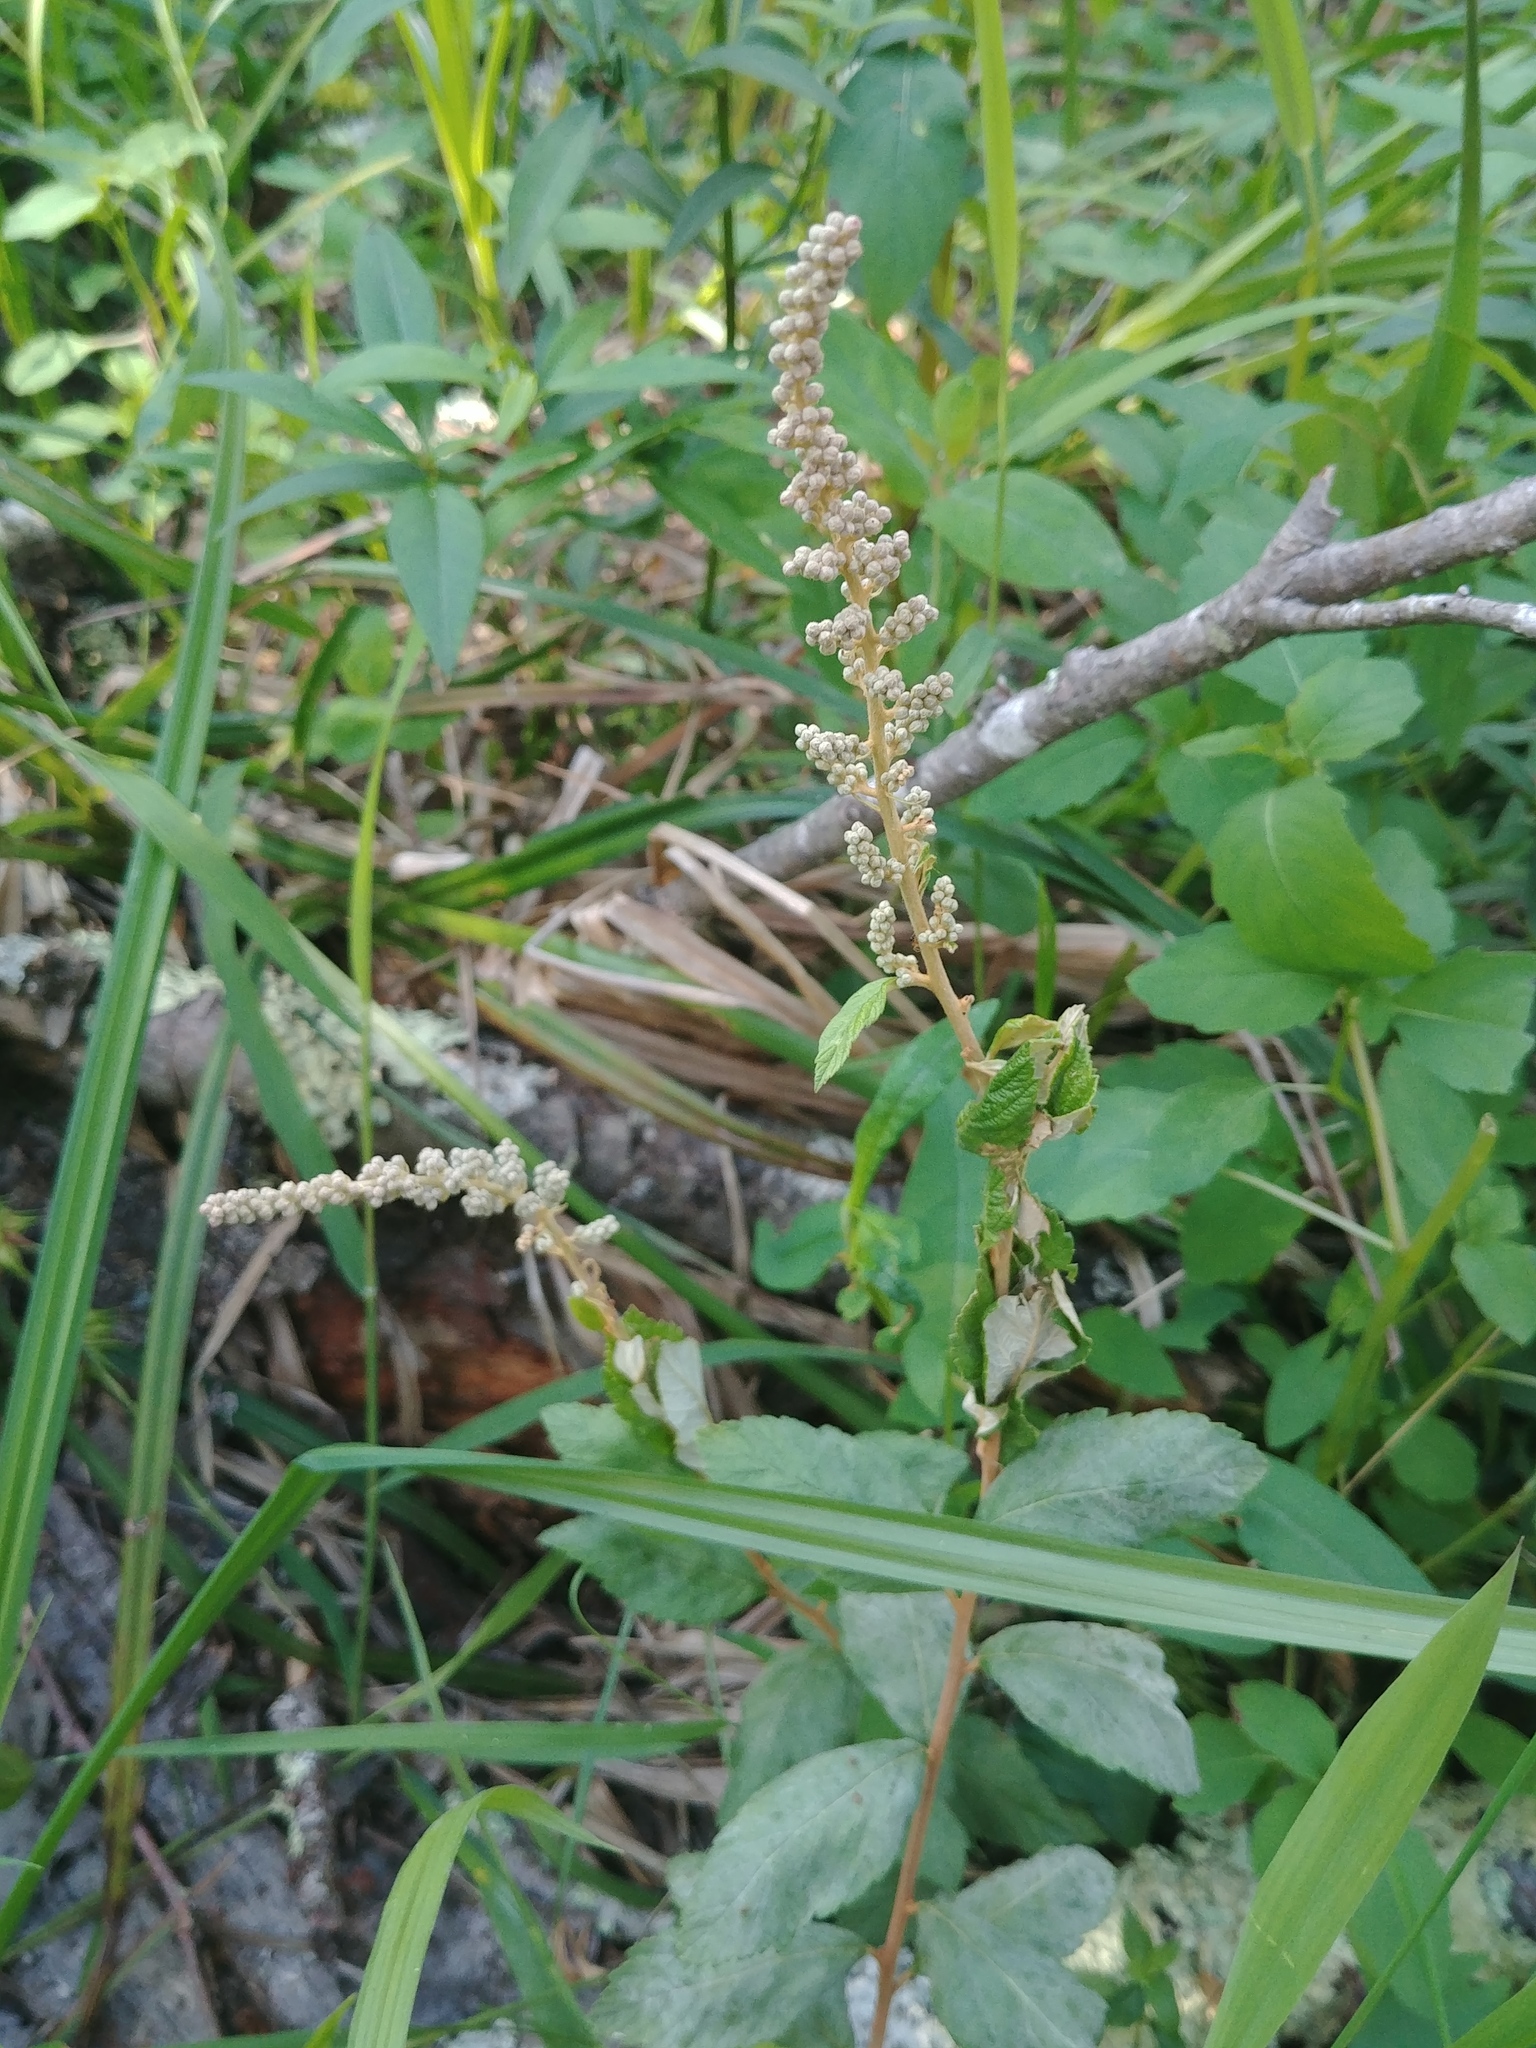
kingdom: Plantae
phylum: Tracheophyta
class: Magnoliopsida
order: Rosales
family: Rosaceae
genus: Spiraea
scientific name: Spiraea tomentosa
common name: Hardhack
